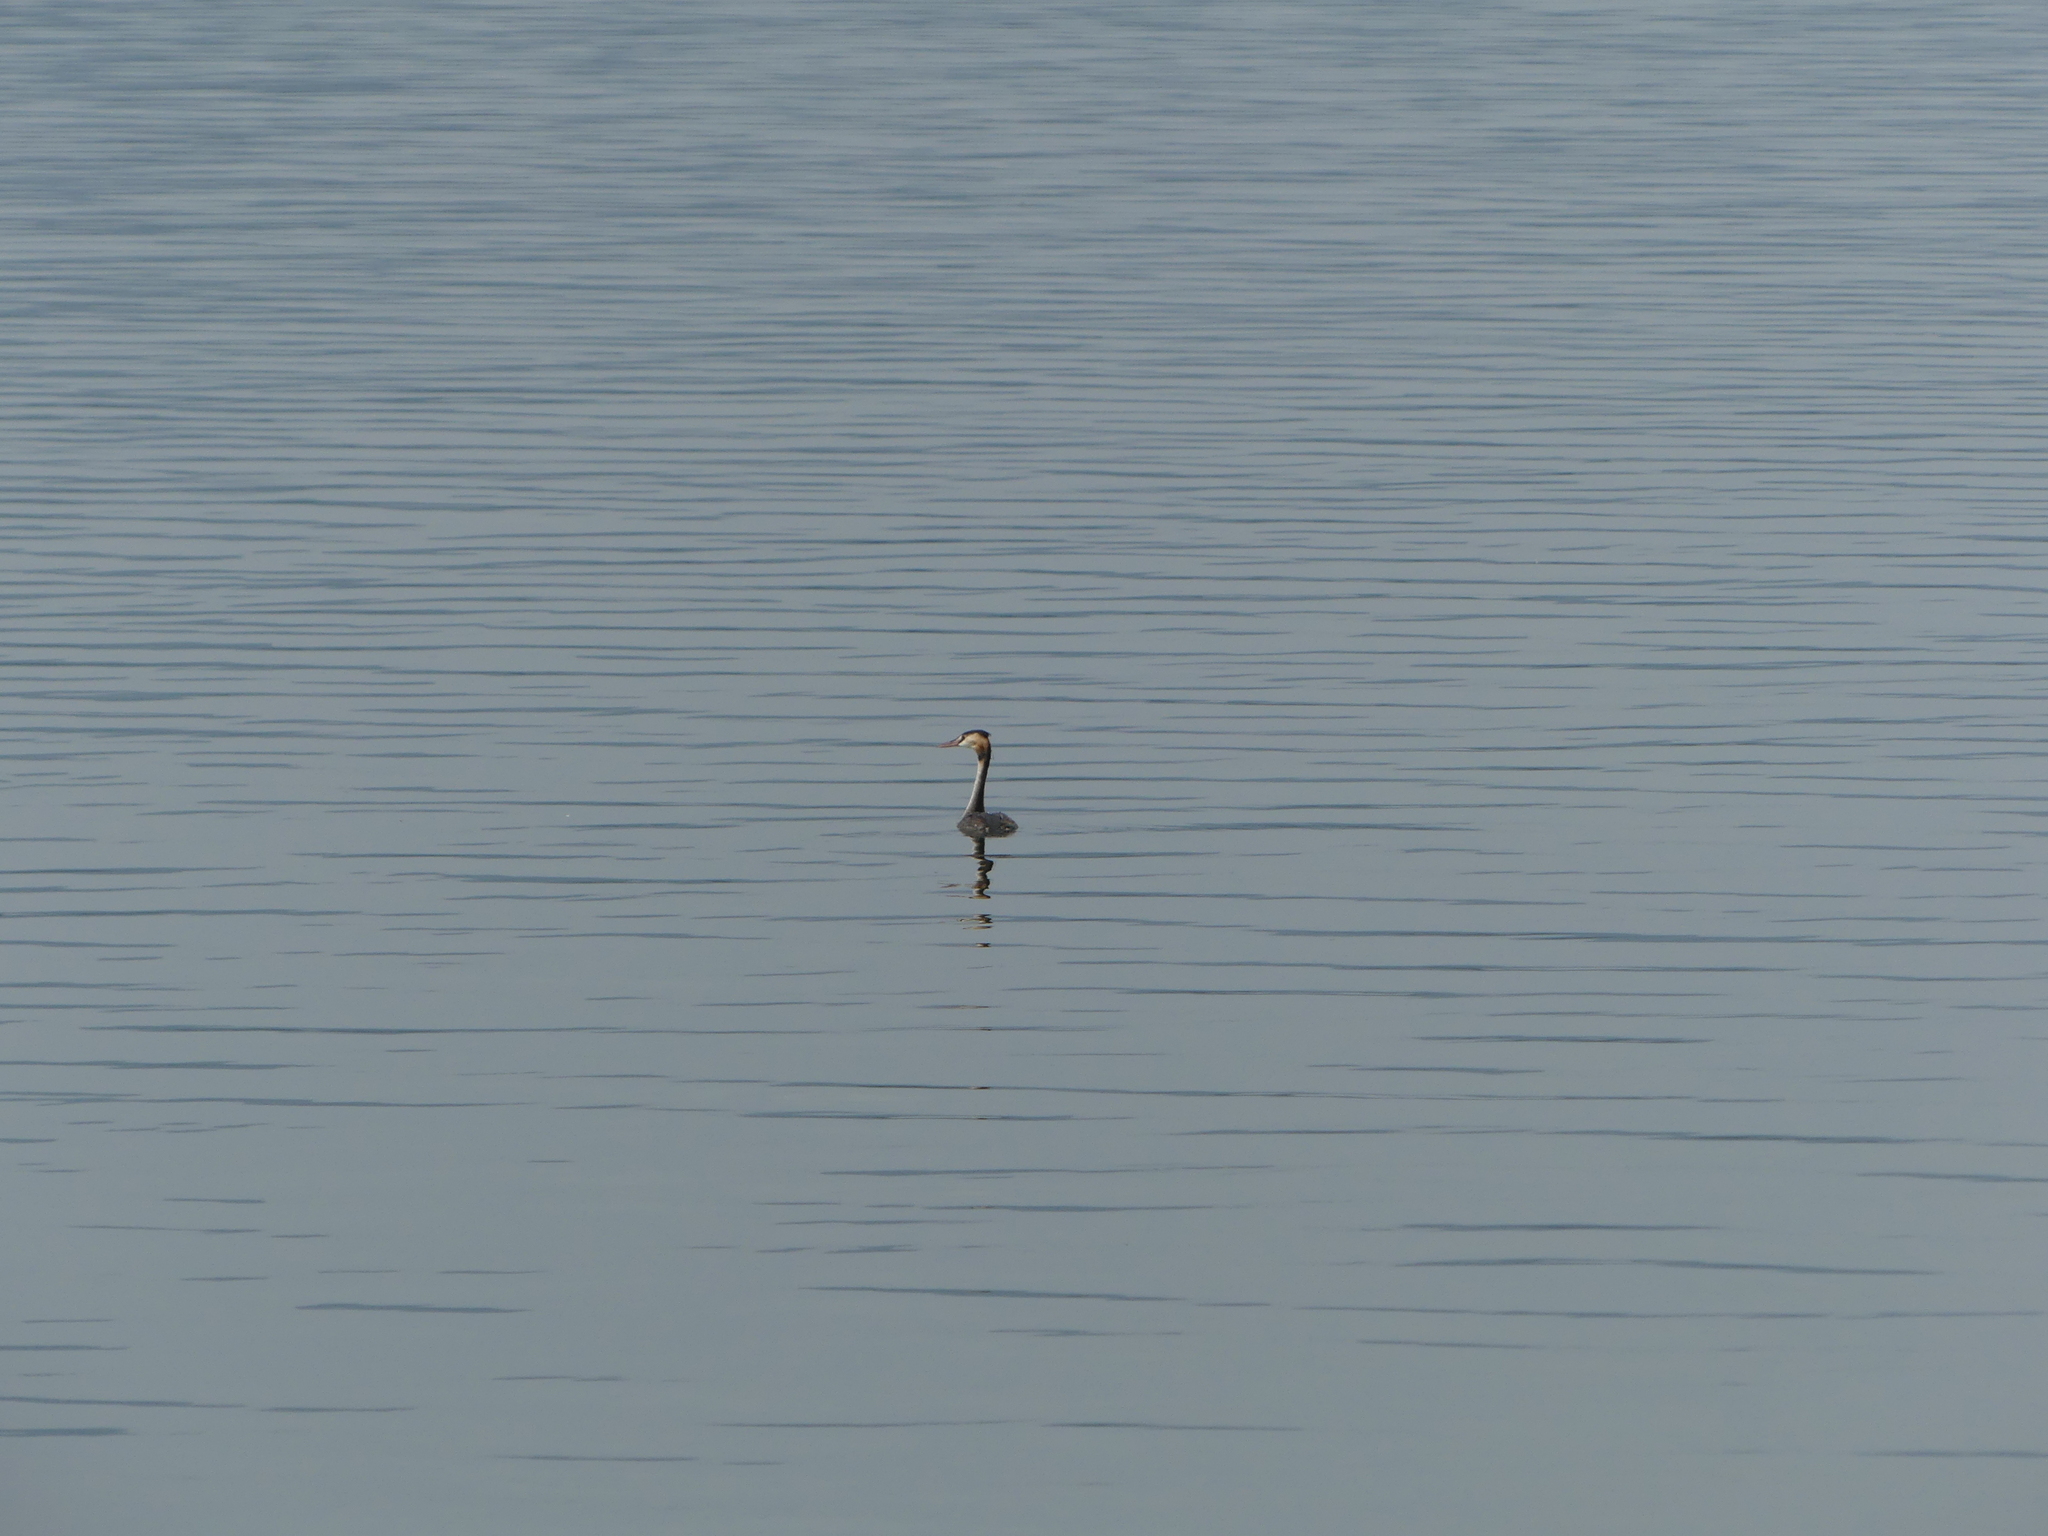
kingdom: Animalia
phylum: Chordata
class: Aves
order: Podicipediformes
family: Podicipedidae
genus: Podiceps
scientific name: Podiceps cristatus
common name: Great crested grebe
